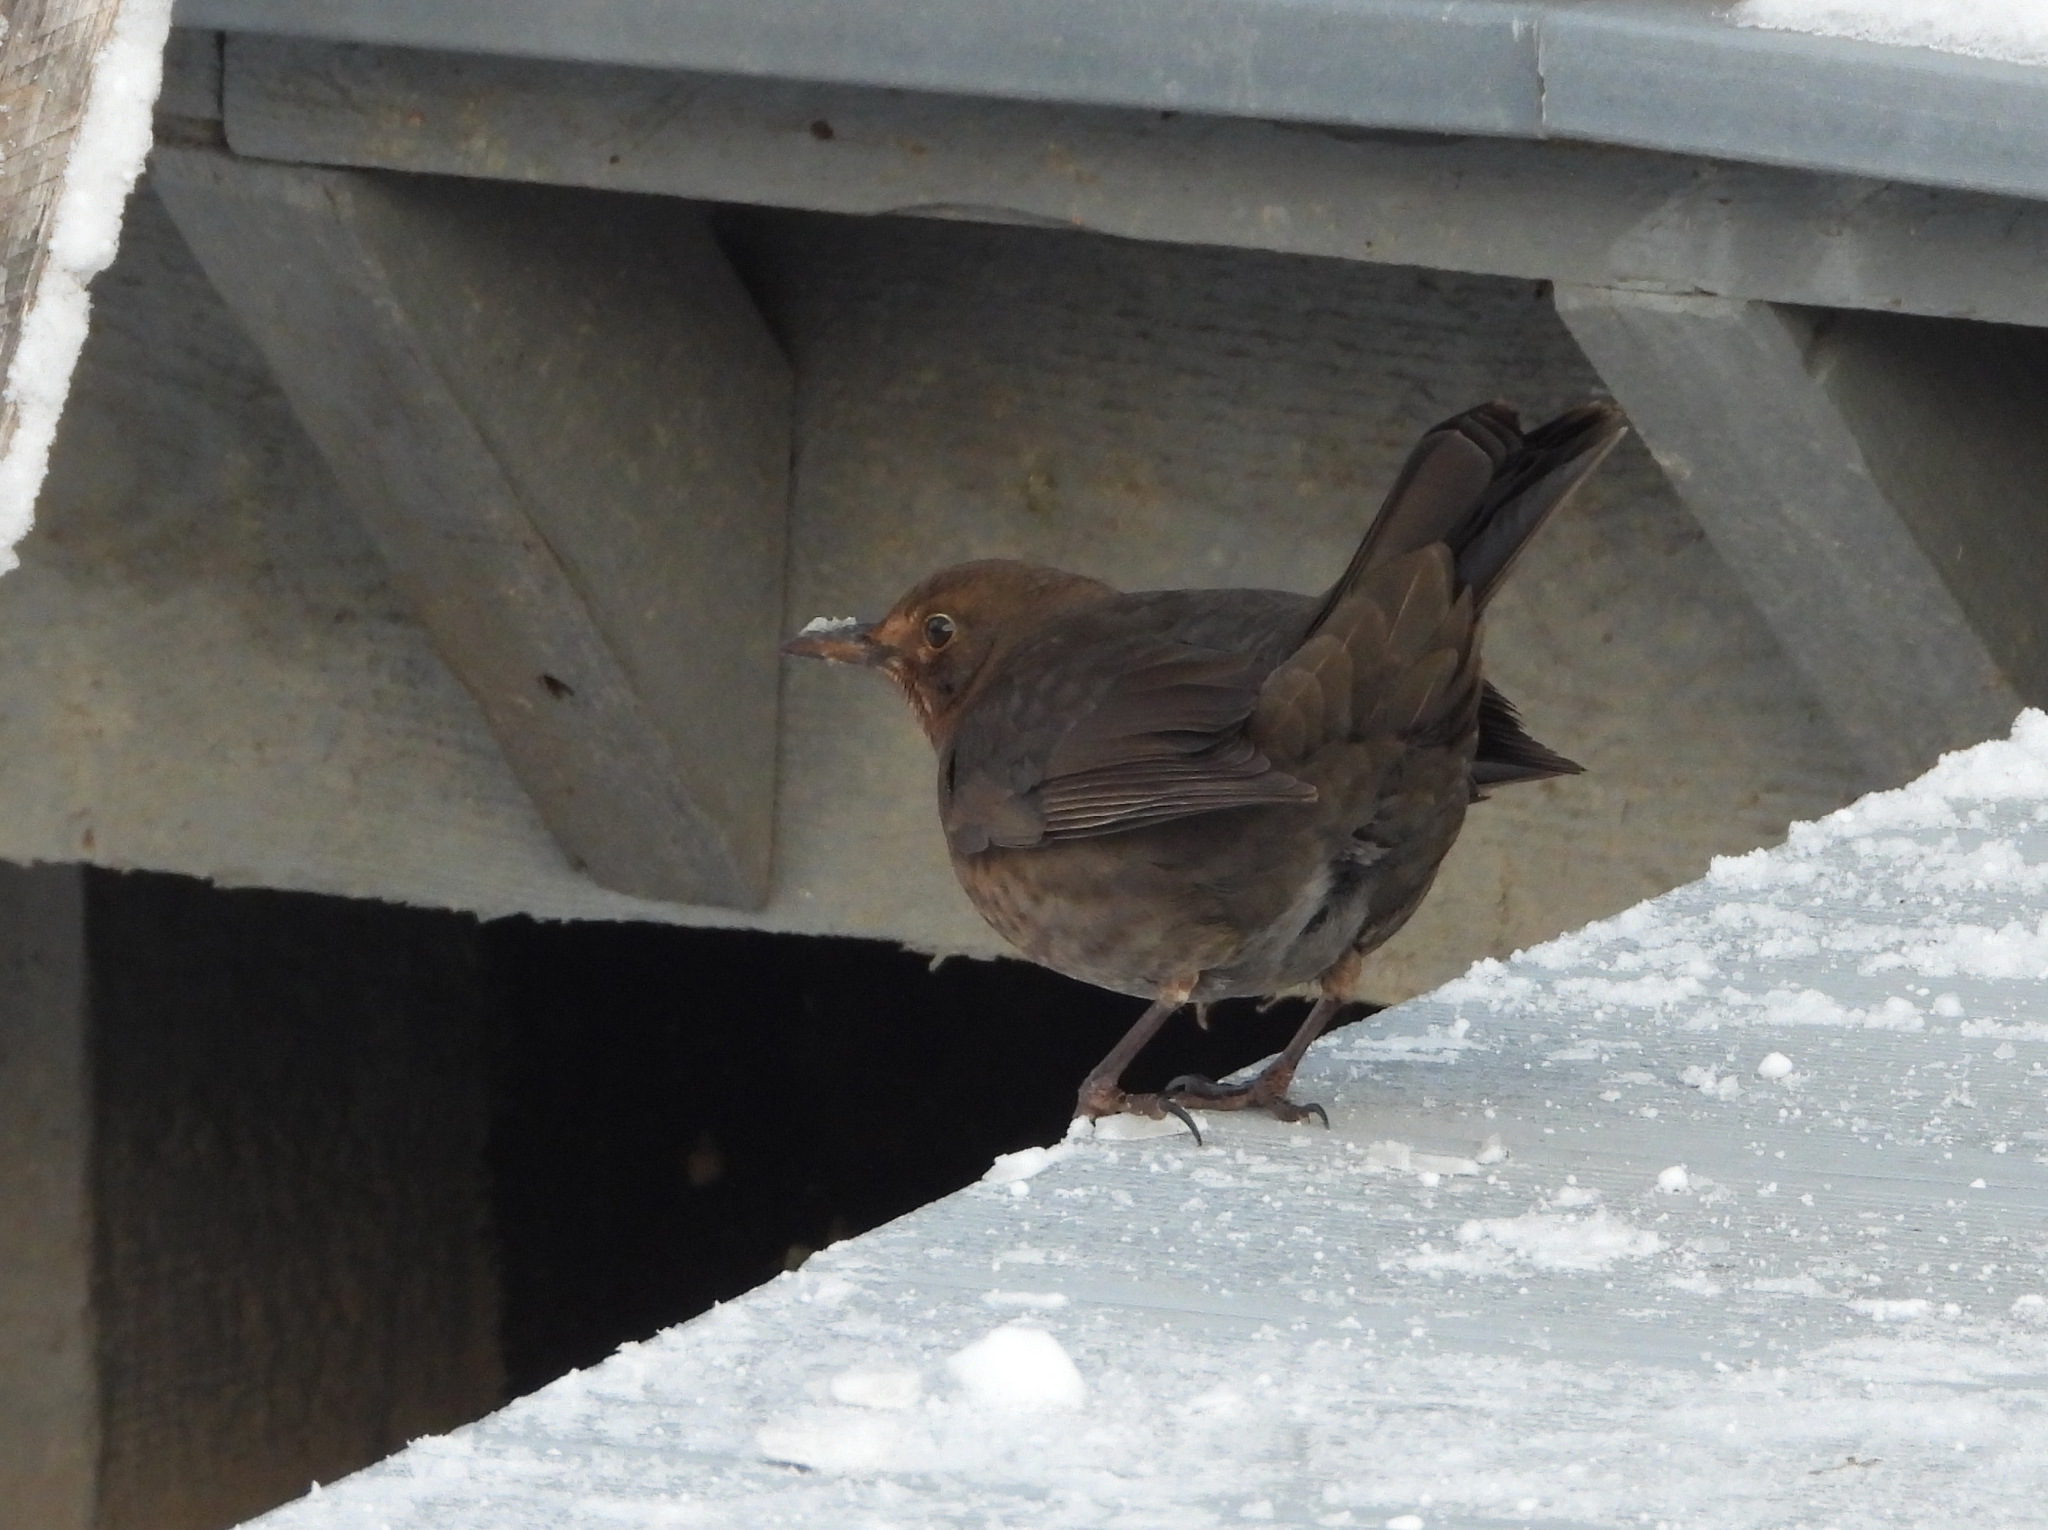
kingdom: Animalia
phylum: Chordata
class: Aves
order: Passeriformes
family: Turdidae
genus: Turdus
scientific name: Turdus merula
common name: Common blackbird
